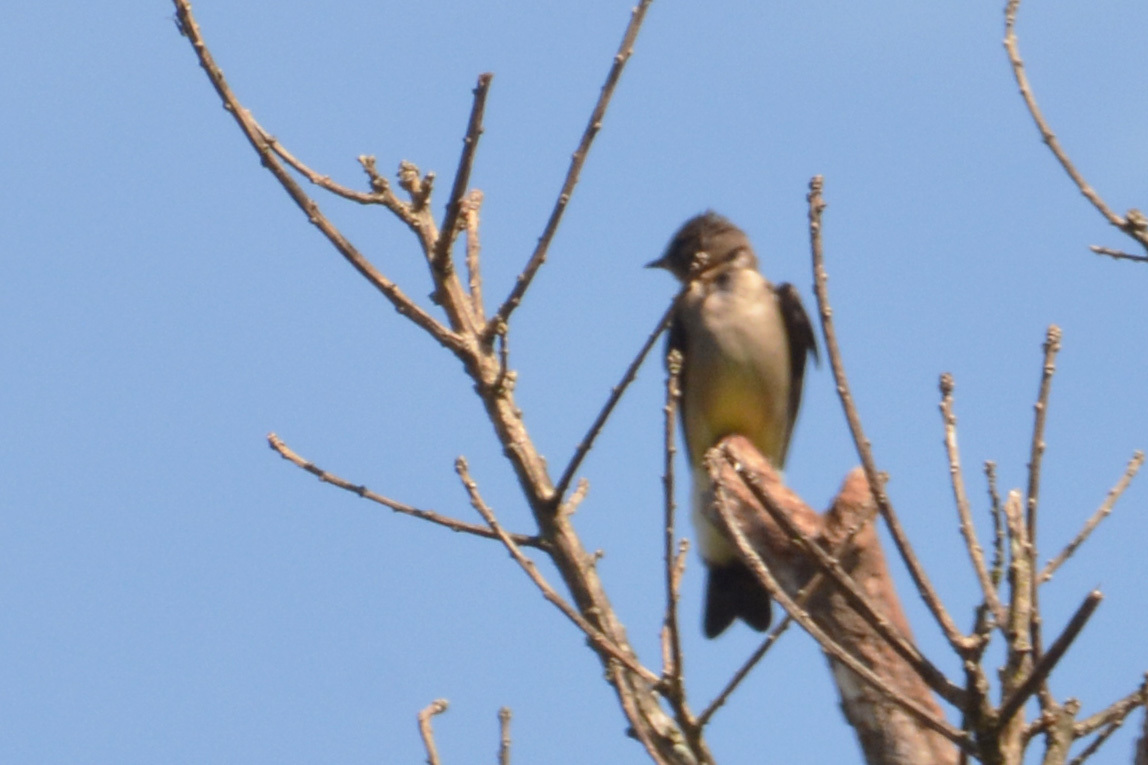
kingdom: Animalia
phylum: Chordata
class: Aves
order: Passeriformes
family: Hirundinidae
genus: Stelgidopteryx
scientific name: Stelgidopteryx ruficollis
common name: Southern rough-winged swallow
